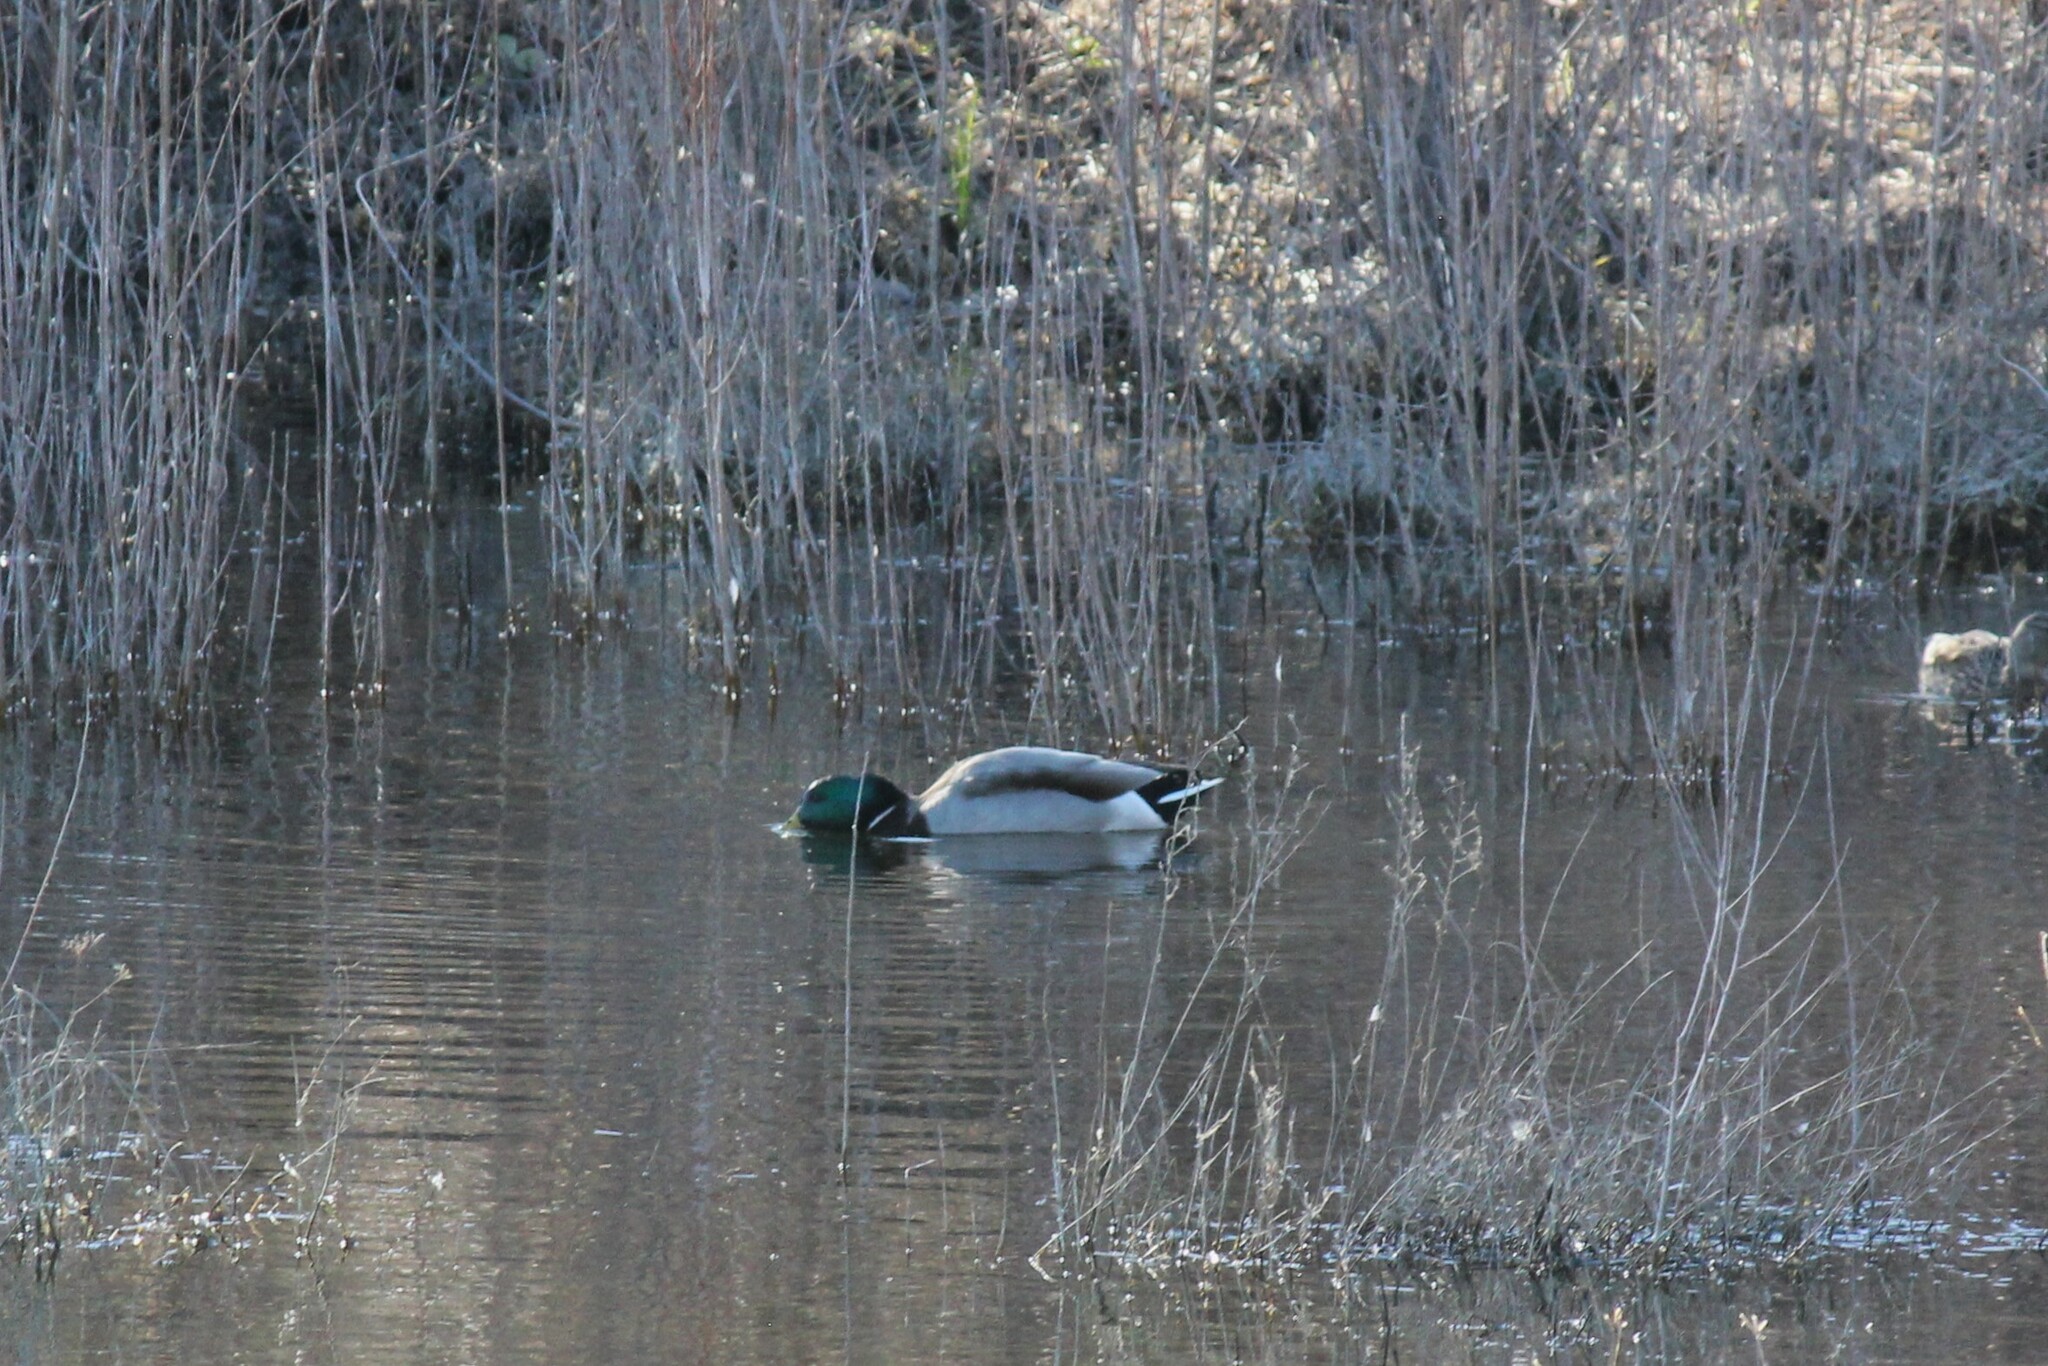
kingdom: Animalia
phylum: Chordata
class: Aves
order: Anseriformes
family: Anatidae
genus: Anas
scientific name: Anas platyrhynchos
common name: Mallard
